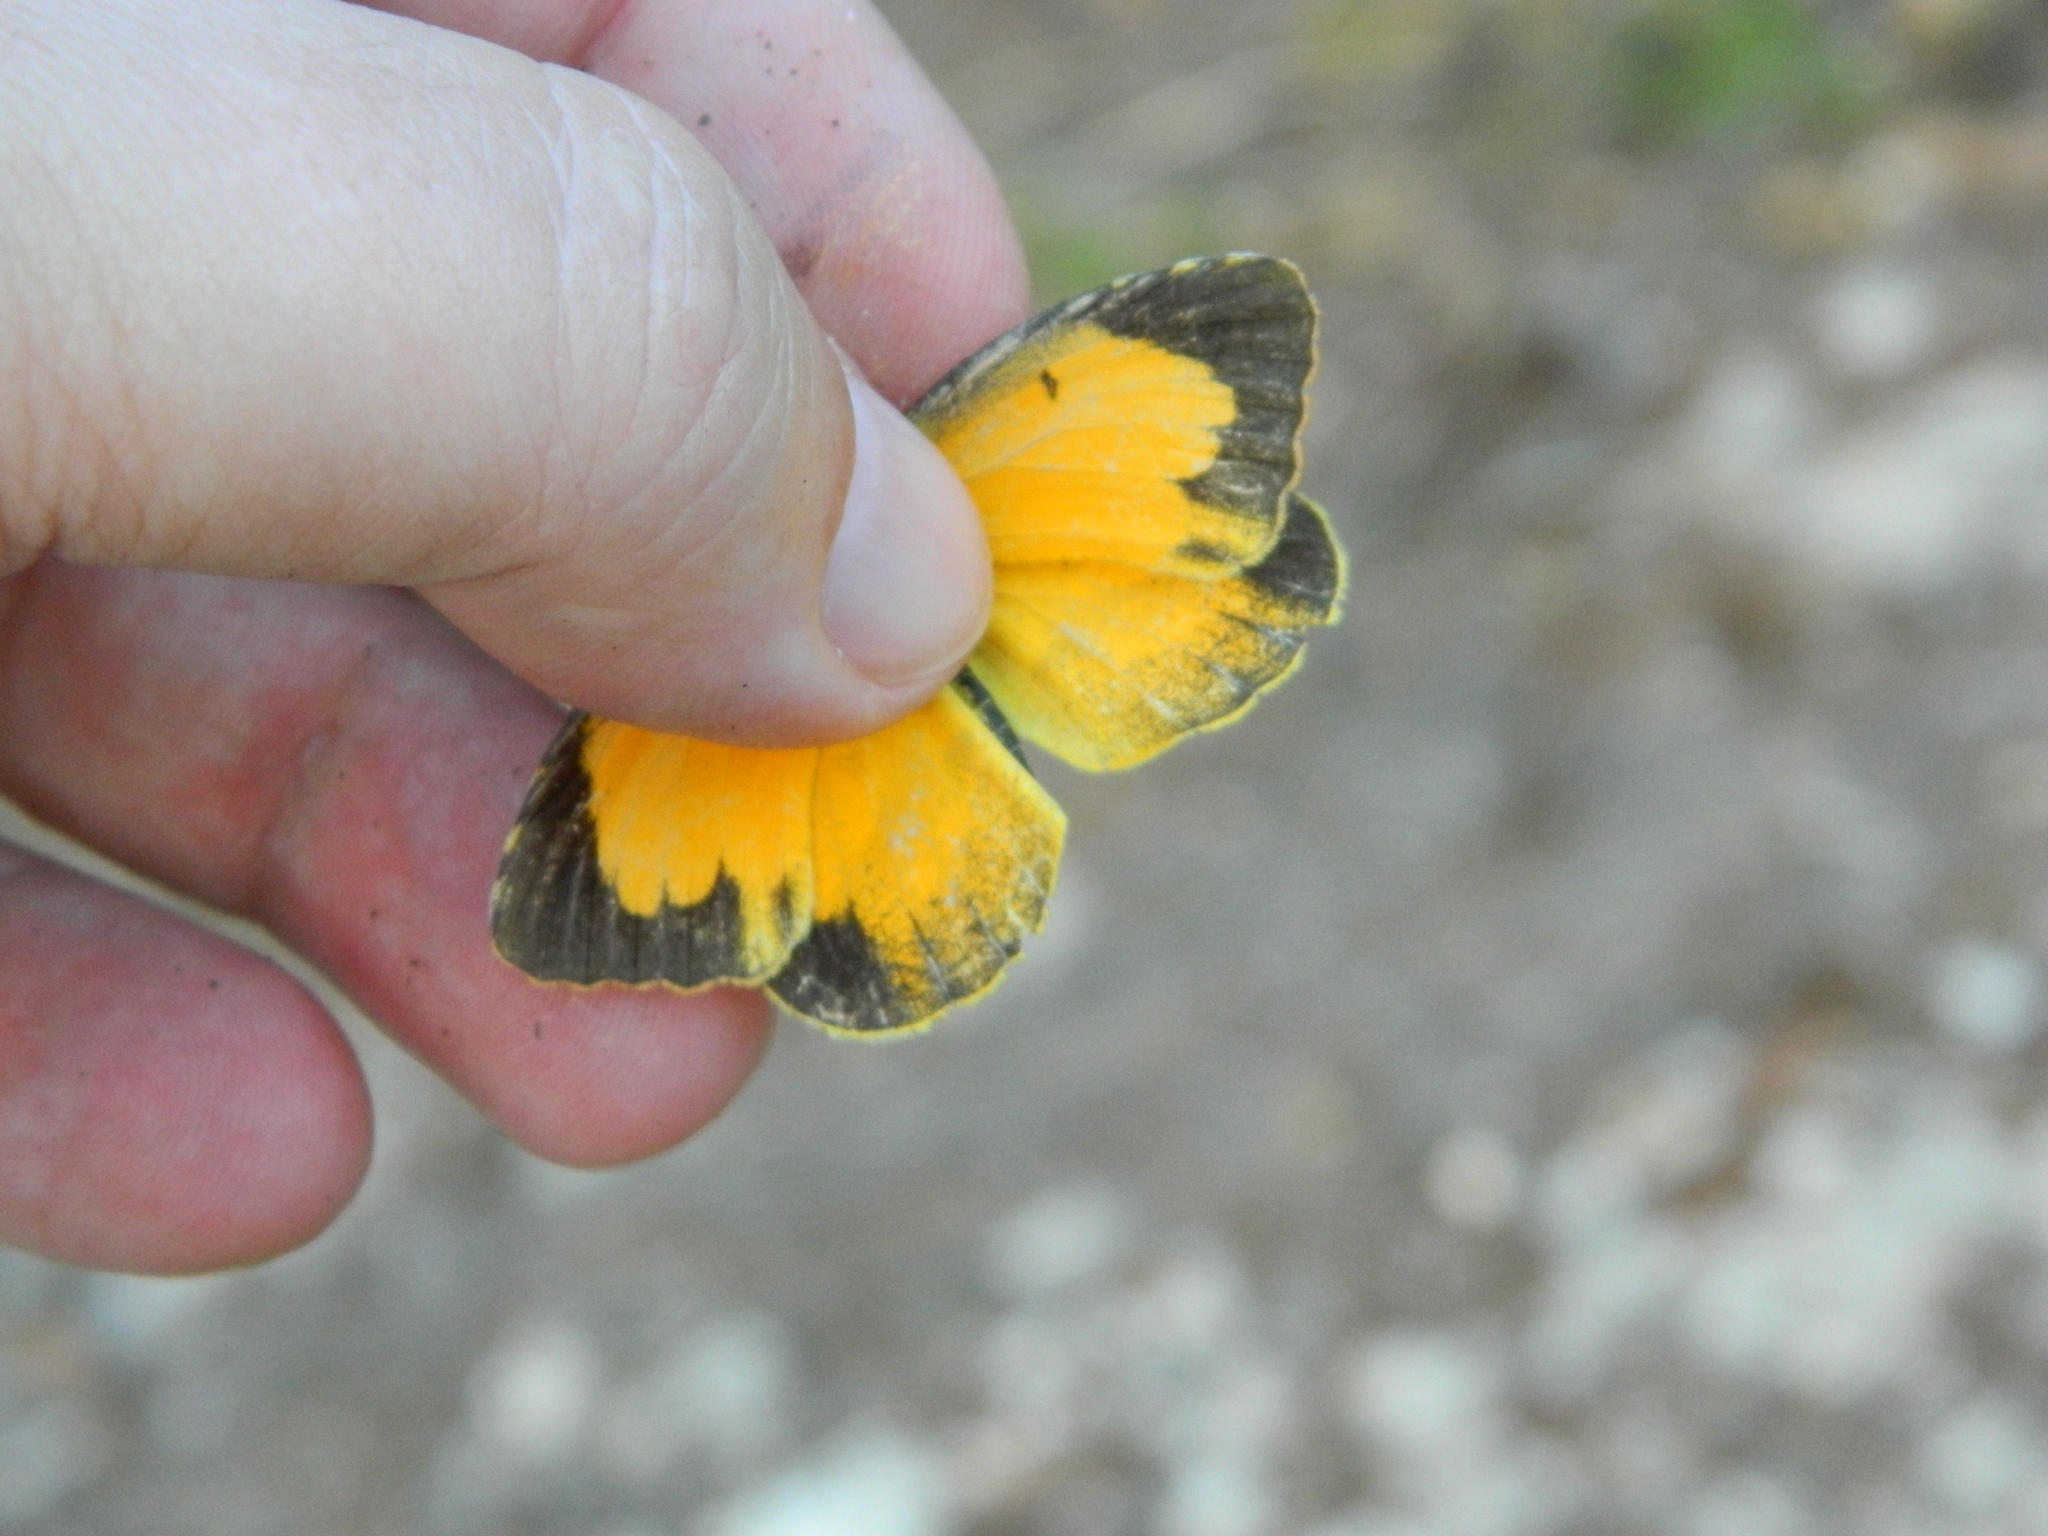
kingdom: Animalia
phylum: Arthropoda
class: Insecta
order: Lepidoptera
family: Pieridae
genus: Abaeis
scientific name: Abaeis nicippiformis
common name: Fast orange
